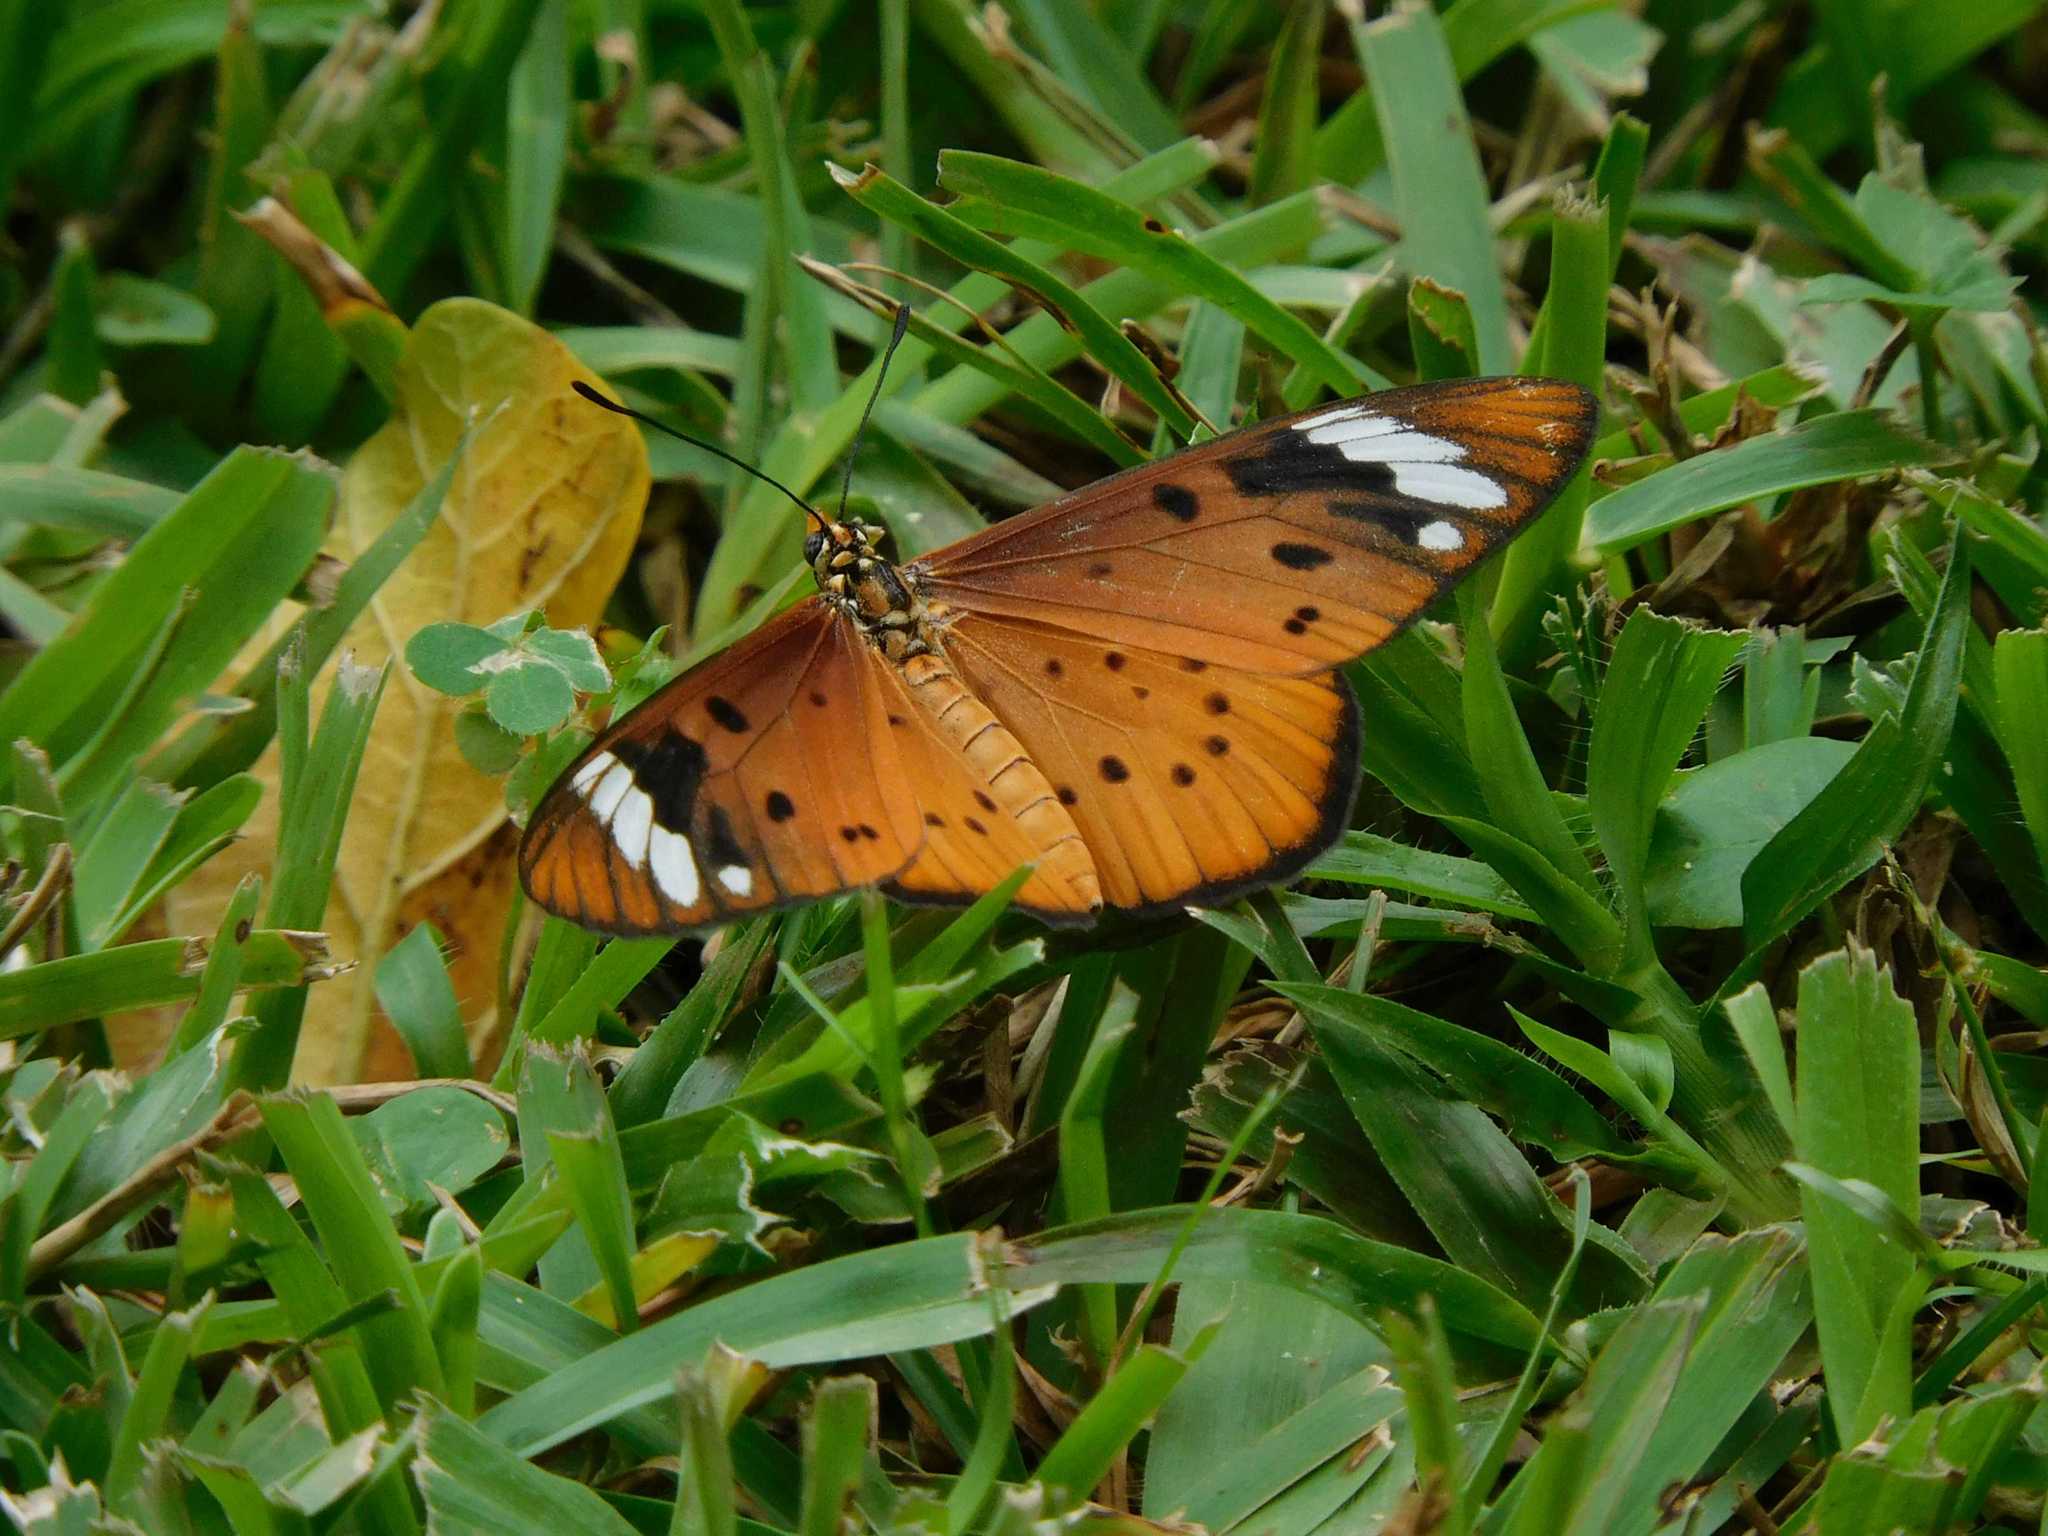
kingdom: Animalia
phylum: Arthropoda
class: Insecta
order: Lepidoptera
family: Nymphalidae
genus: Acraea
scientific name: Acraea Telchinia encedon
